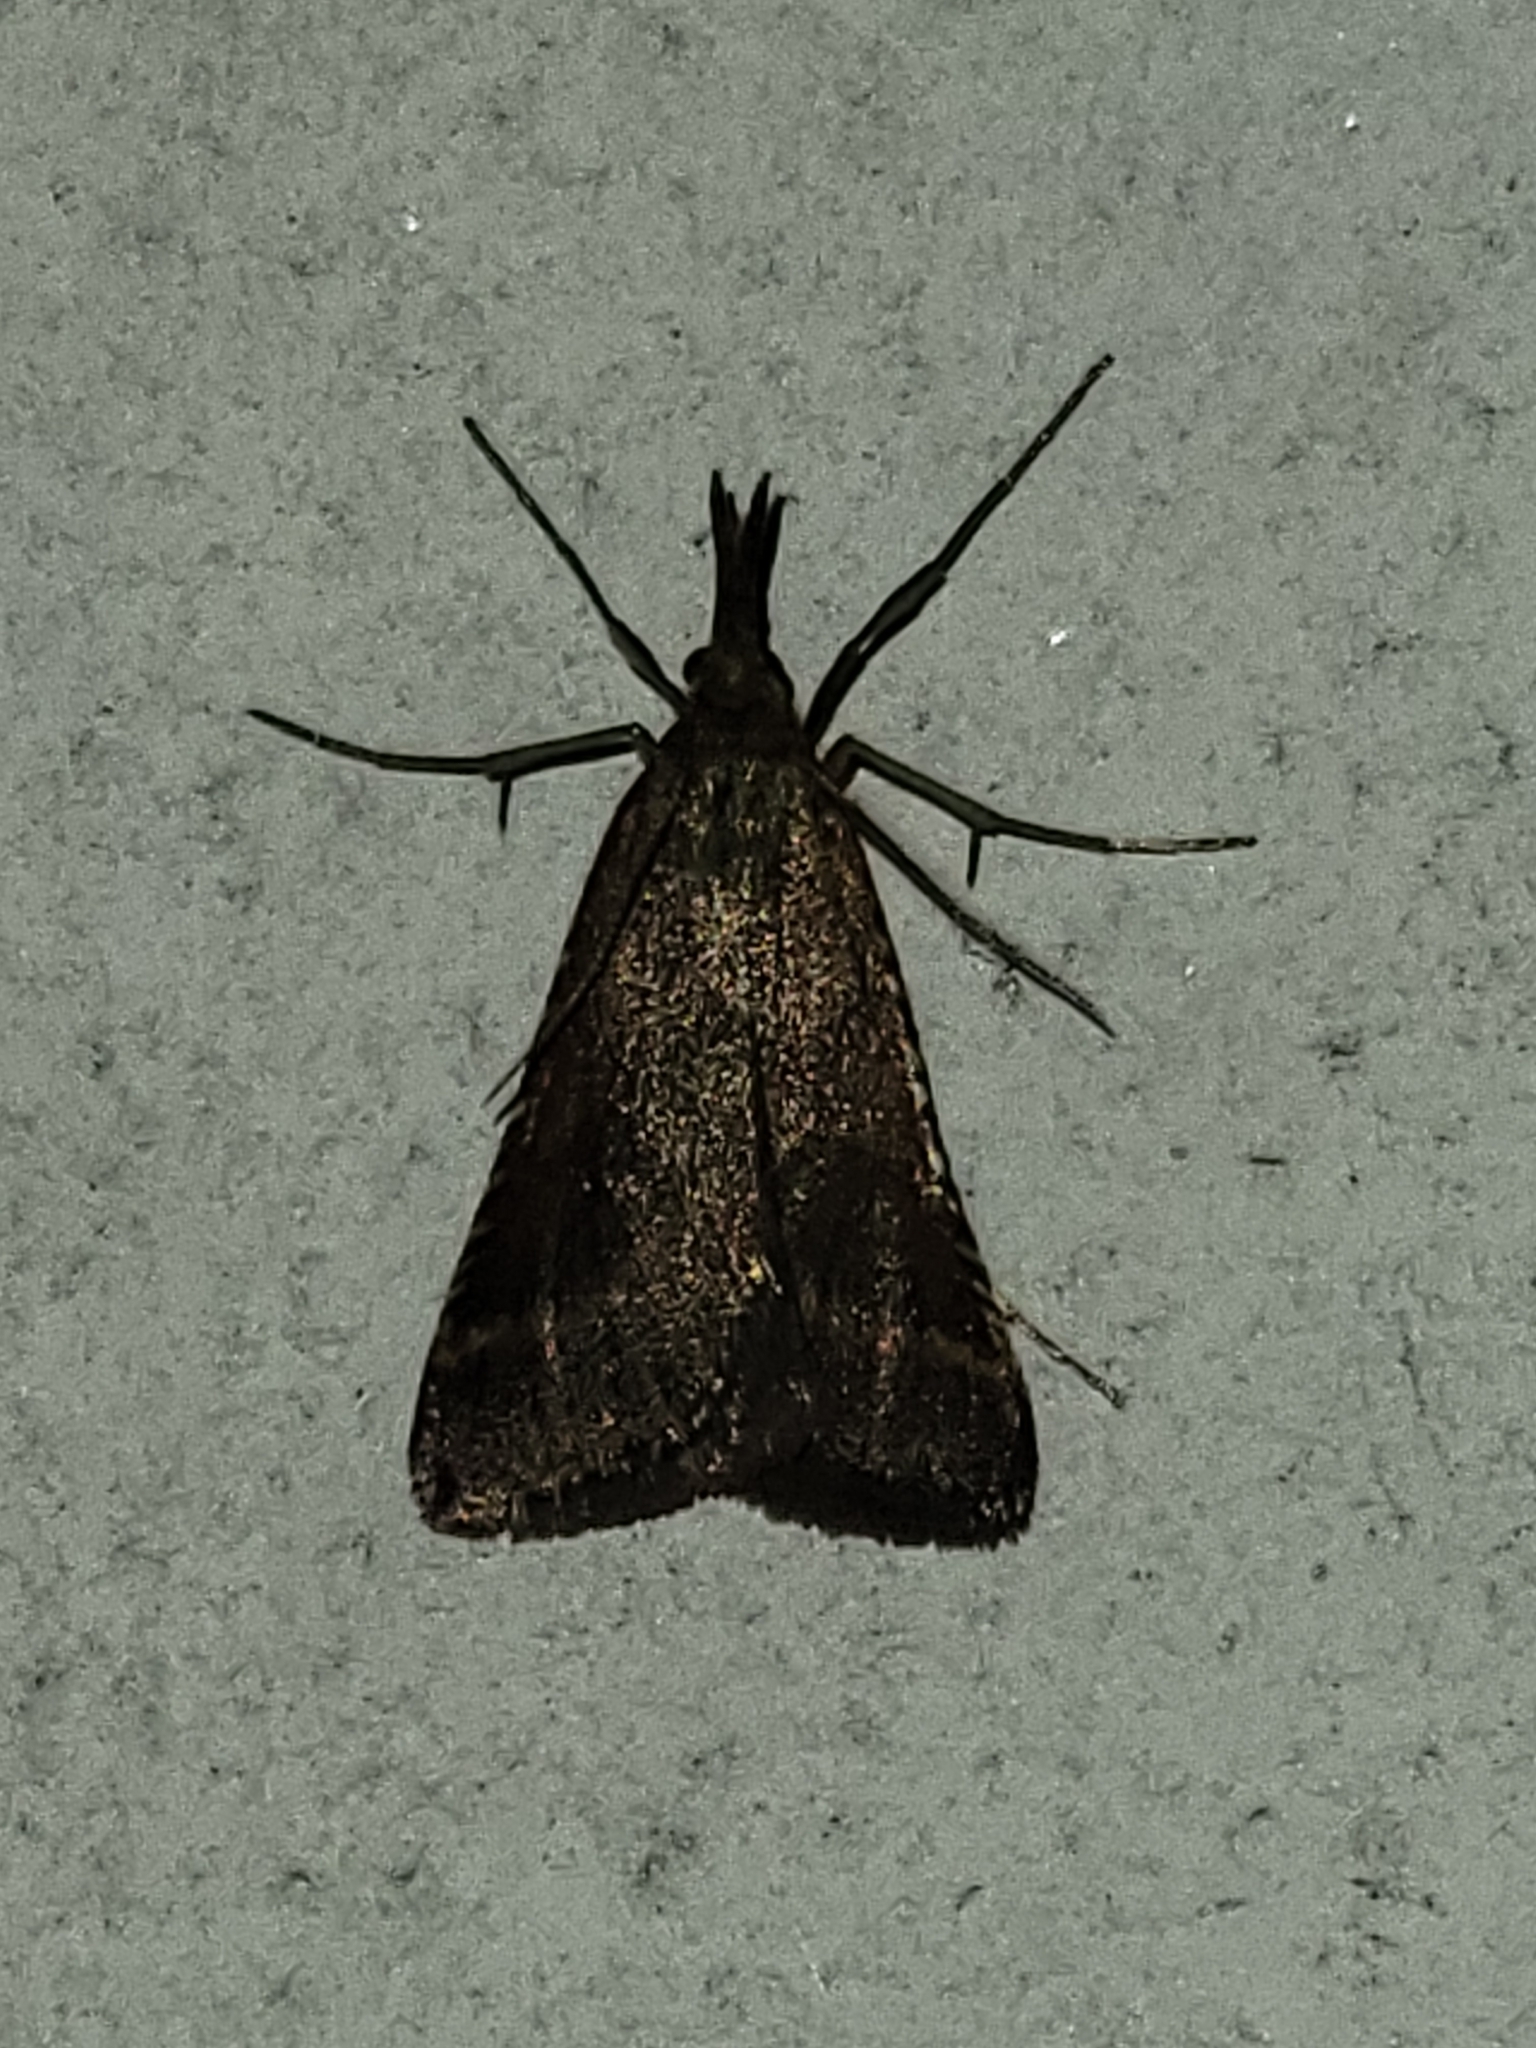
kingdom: Animalia
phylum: Arthropoda
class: Insecta
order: Lepidoptera
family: Pyralidae
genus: Synaphe
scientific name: Synaphe punctalis
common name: Long-legged tabby
